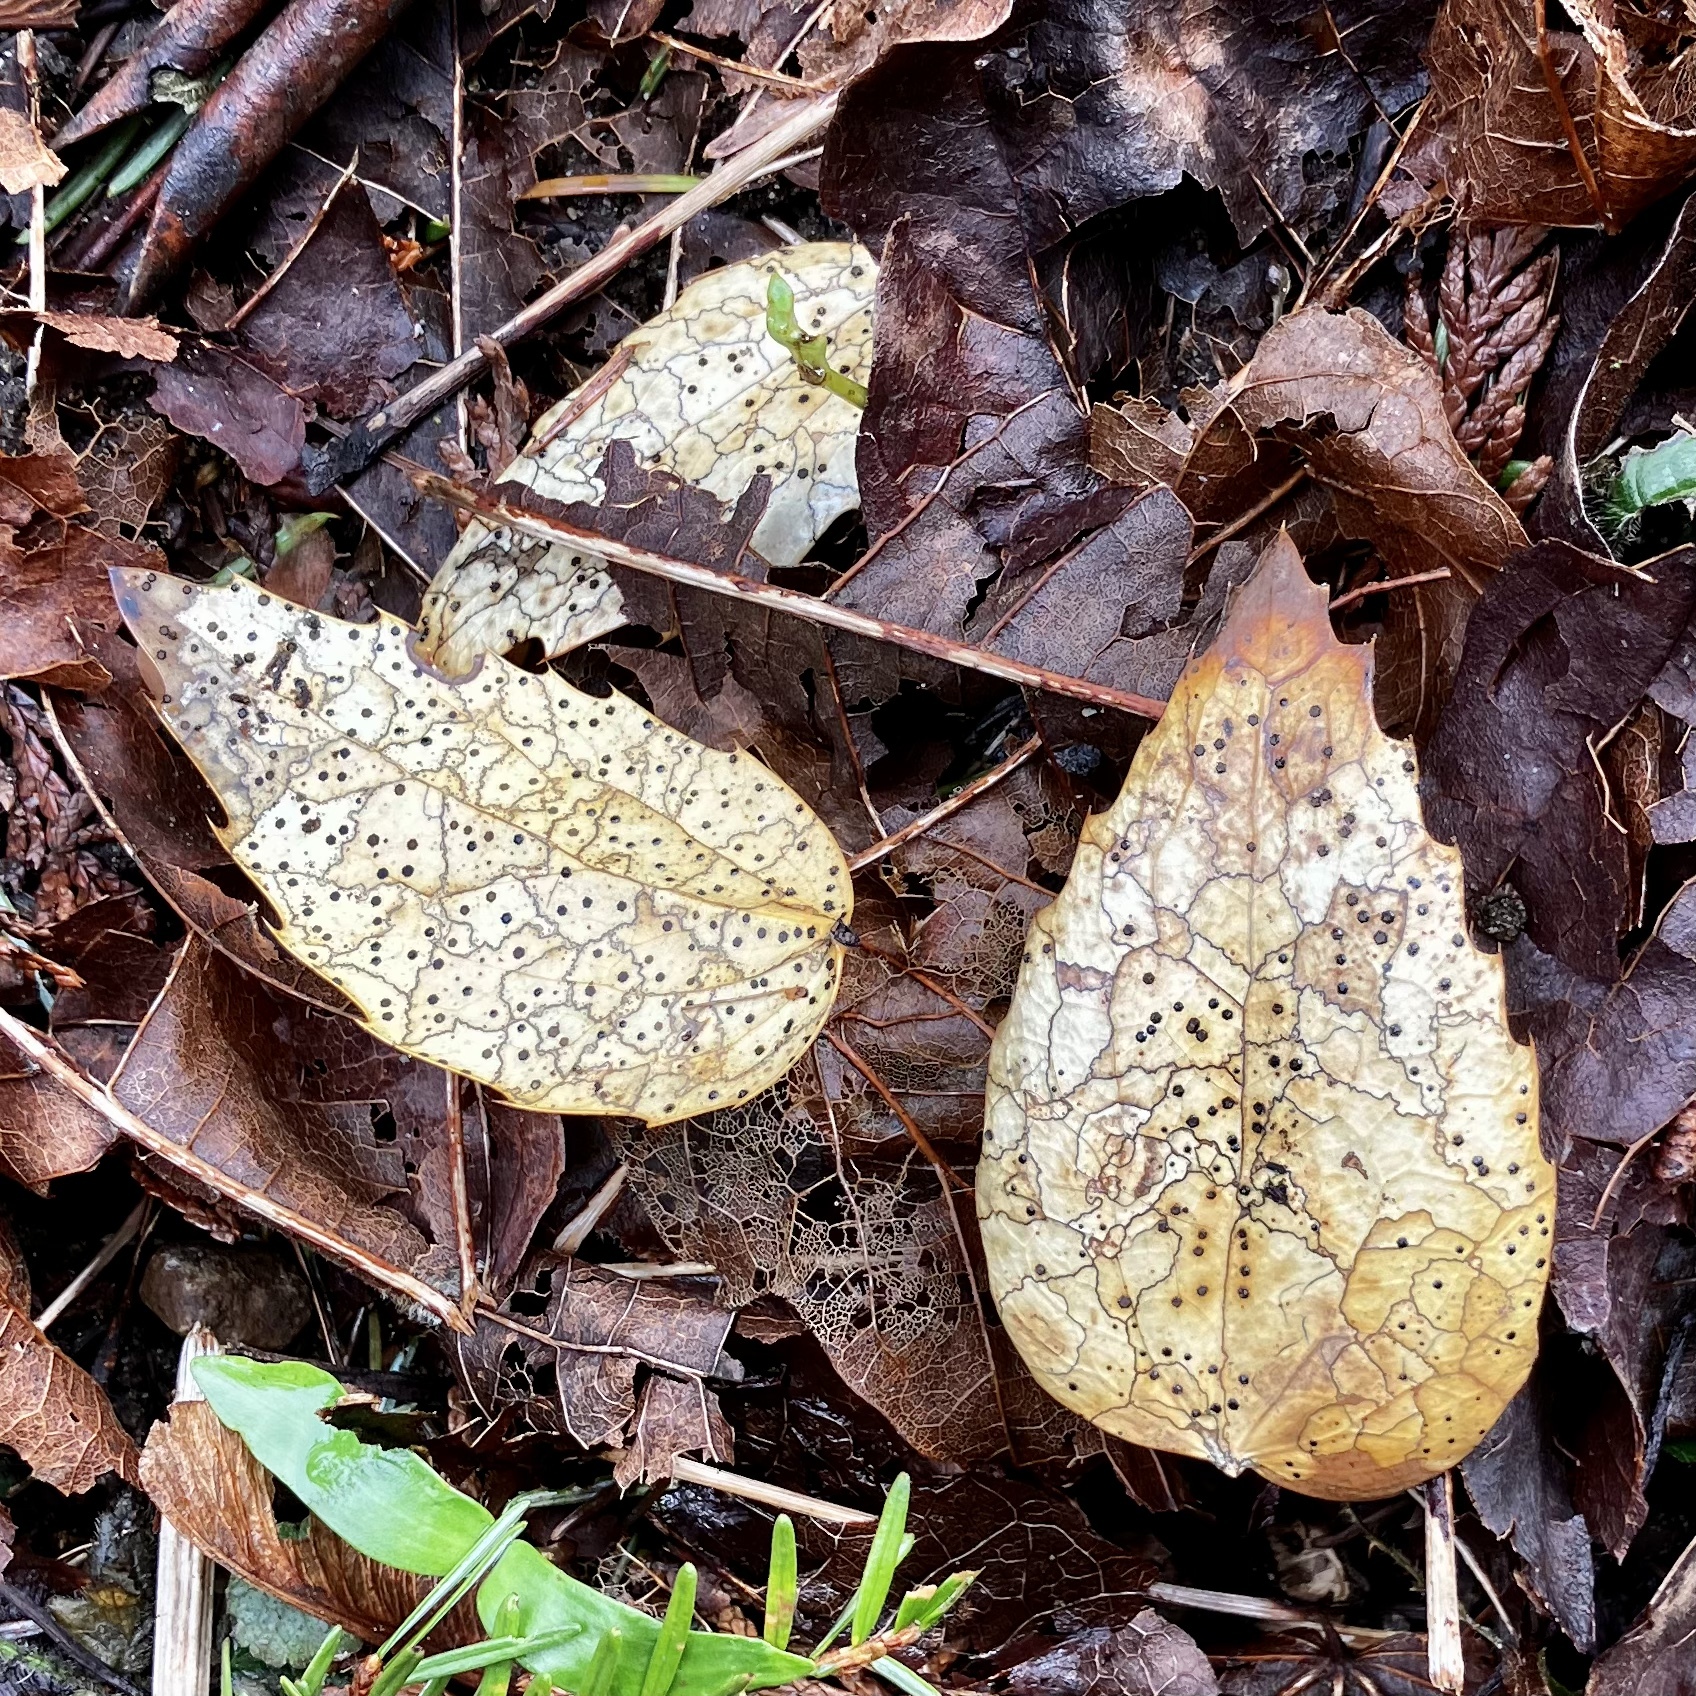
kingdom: Fungi
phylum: Ascomycota
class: Leotiomycetes
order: Rhytismatales
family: Rhytismataceae
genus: Coccomyces
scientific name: Coccomyces dentatus
